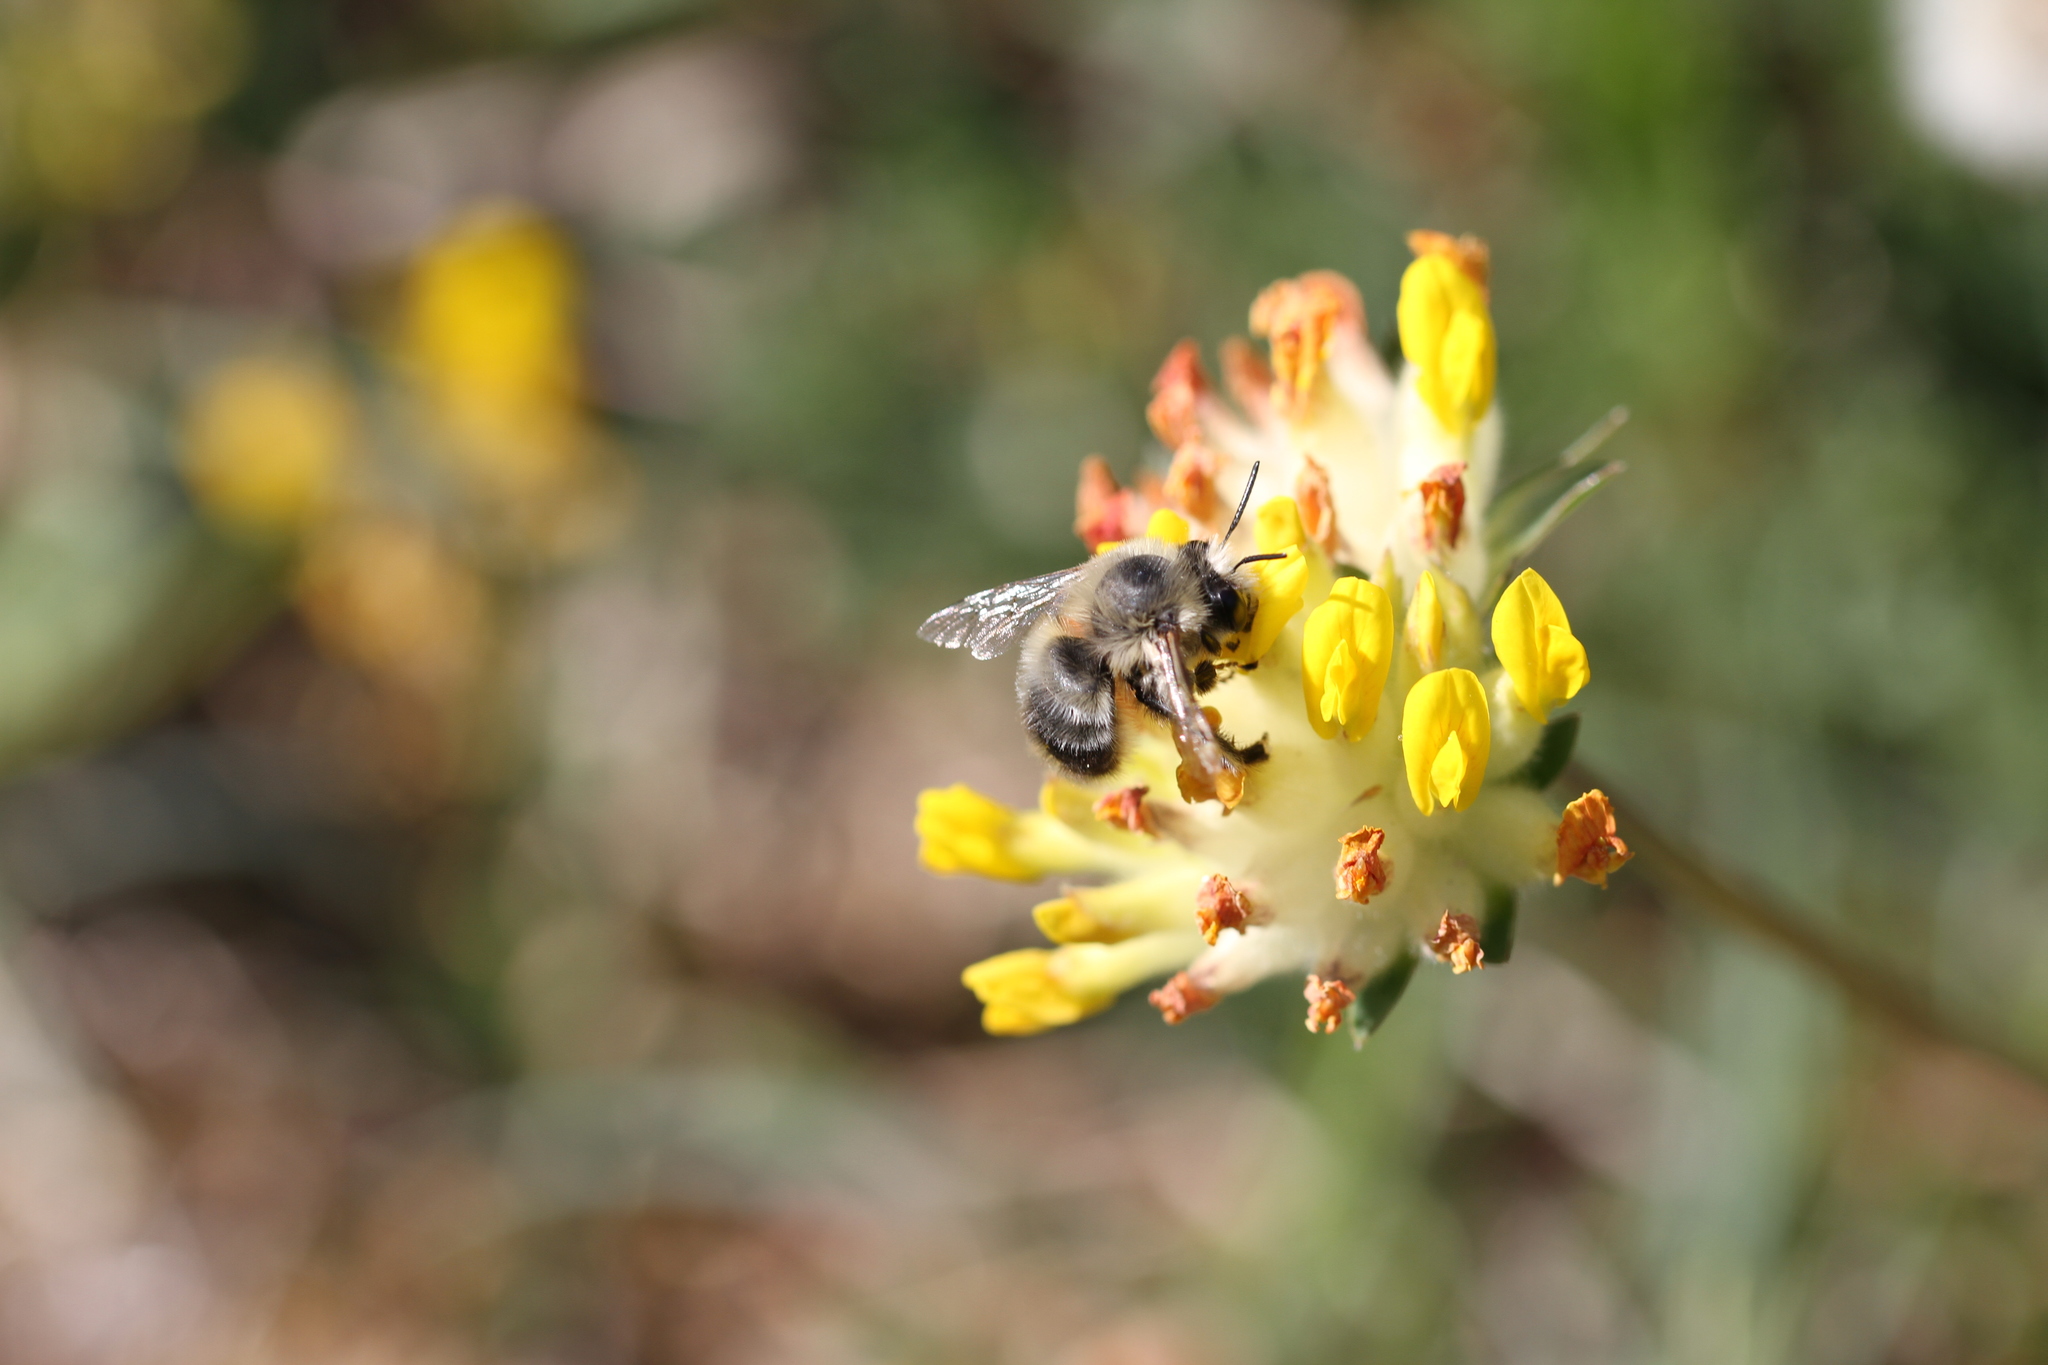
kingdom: Animalia
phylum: Arthropoda
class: Insecta
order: Hymenoptera
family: Apidae
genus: Anthophora
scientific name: Anthophora aestivalis
